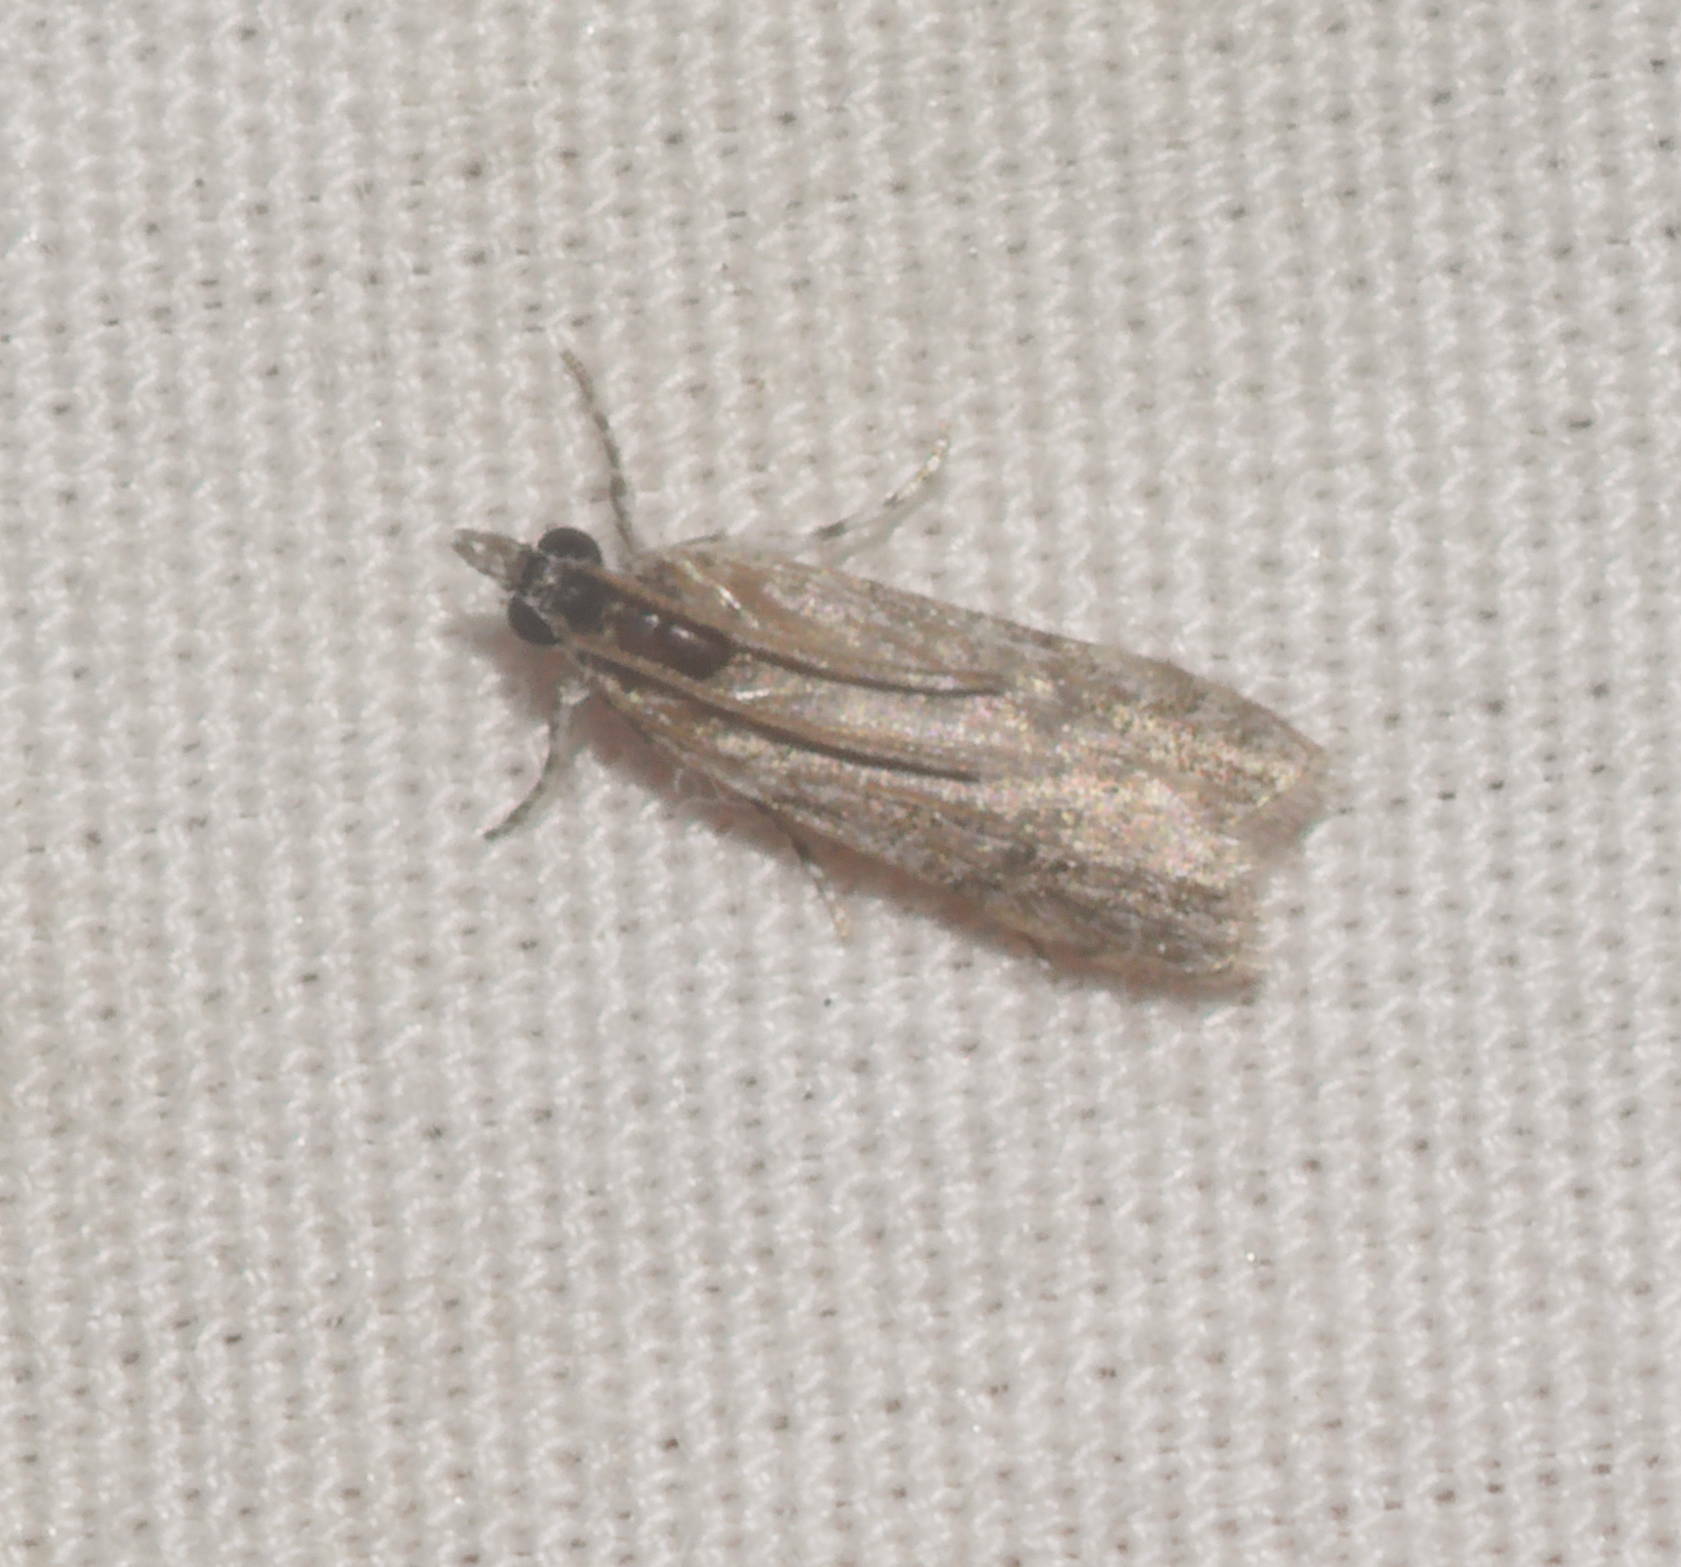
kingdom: Animalia
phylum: Arthropoda
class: Insecta
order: Lepidoptera
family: Crambidae
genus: Eudonia
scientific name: Eudonia geraea
